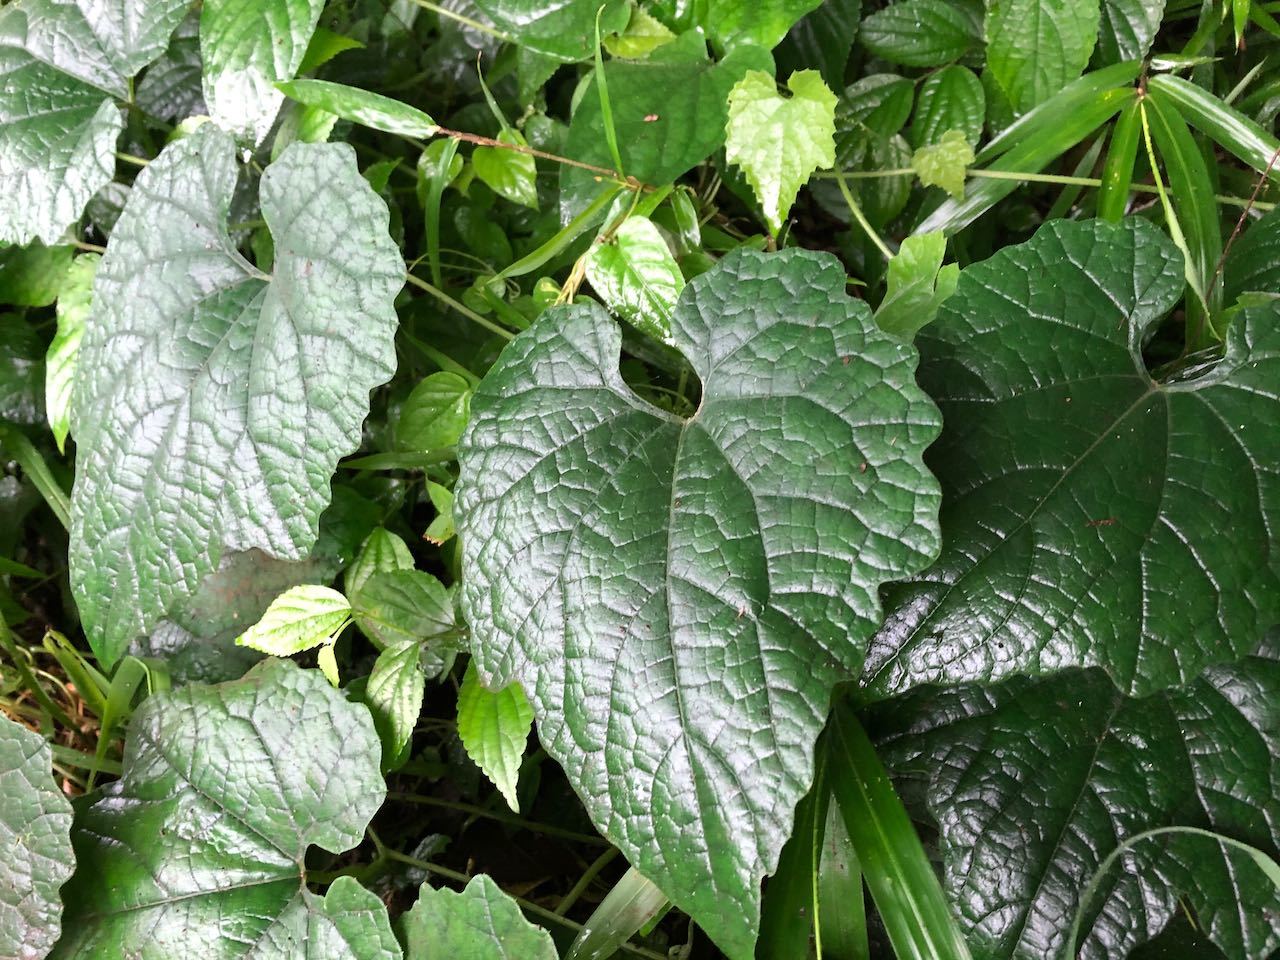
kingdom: Plantae
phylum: Tracheophyta
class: Magnoliopsida
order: Cucurbitales
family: Cucurbitaceae
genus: Trichosanthes
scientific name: Trichosanthes kirilowii
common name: Chinese-cucumber
